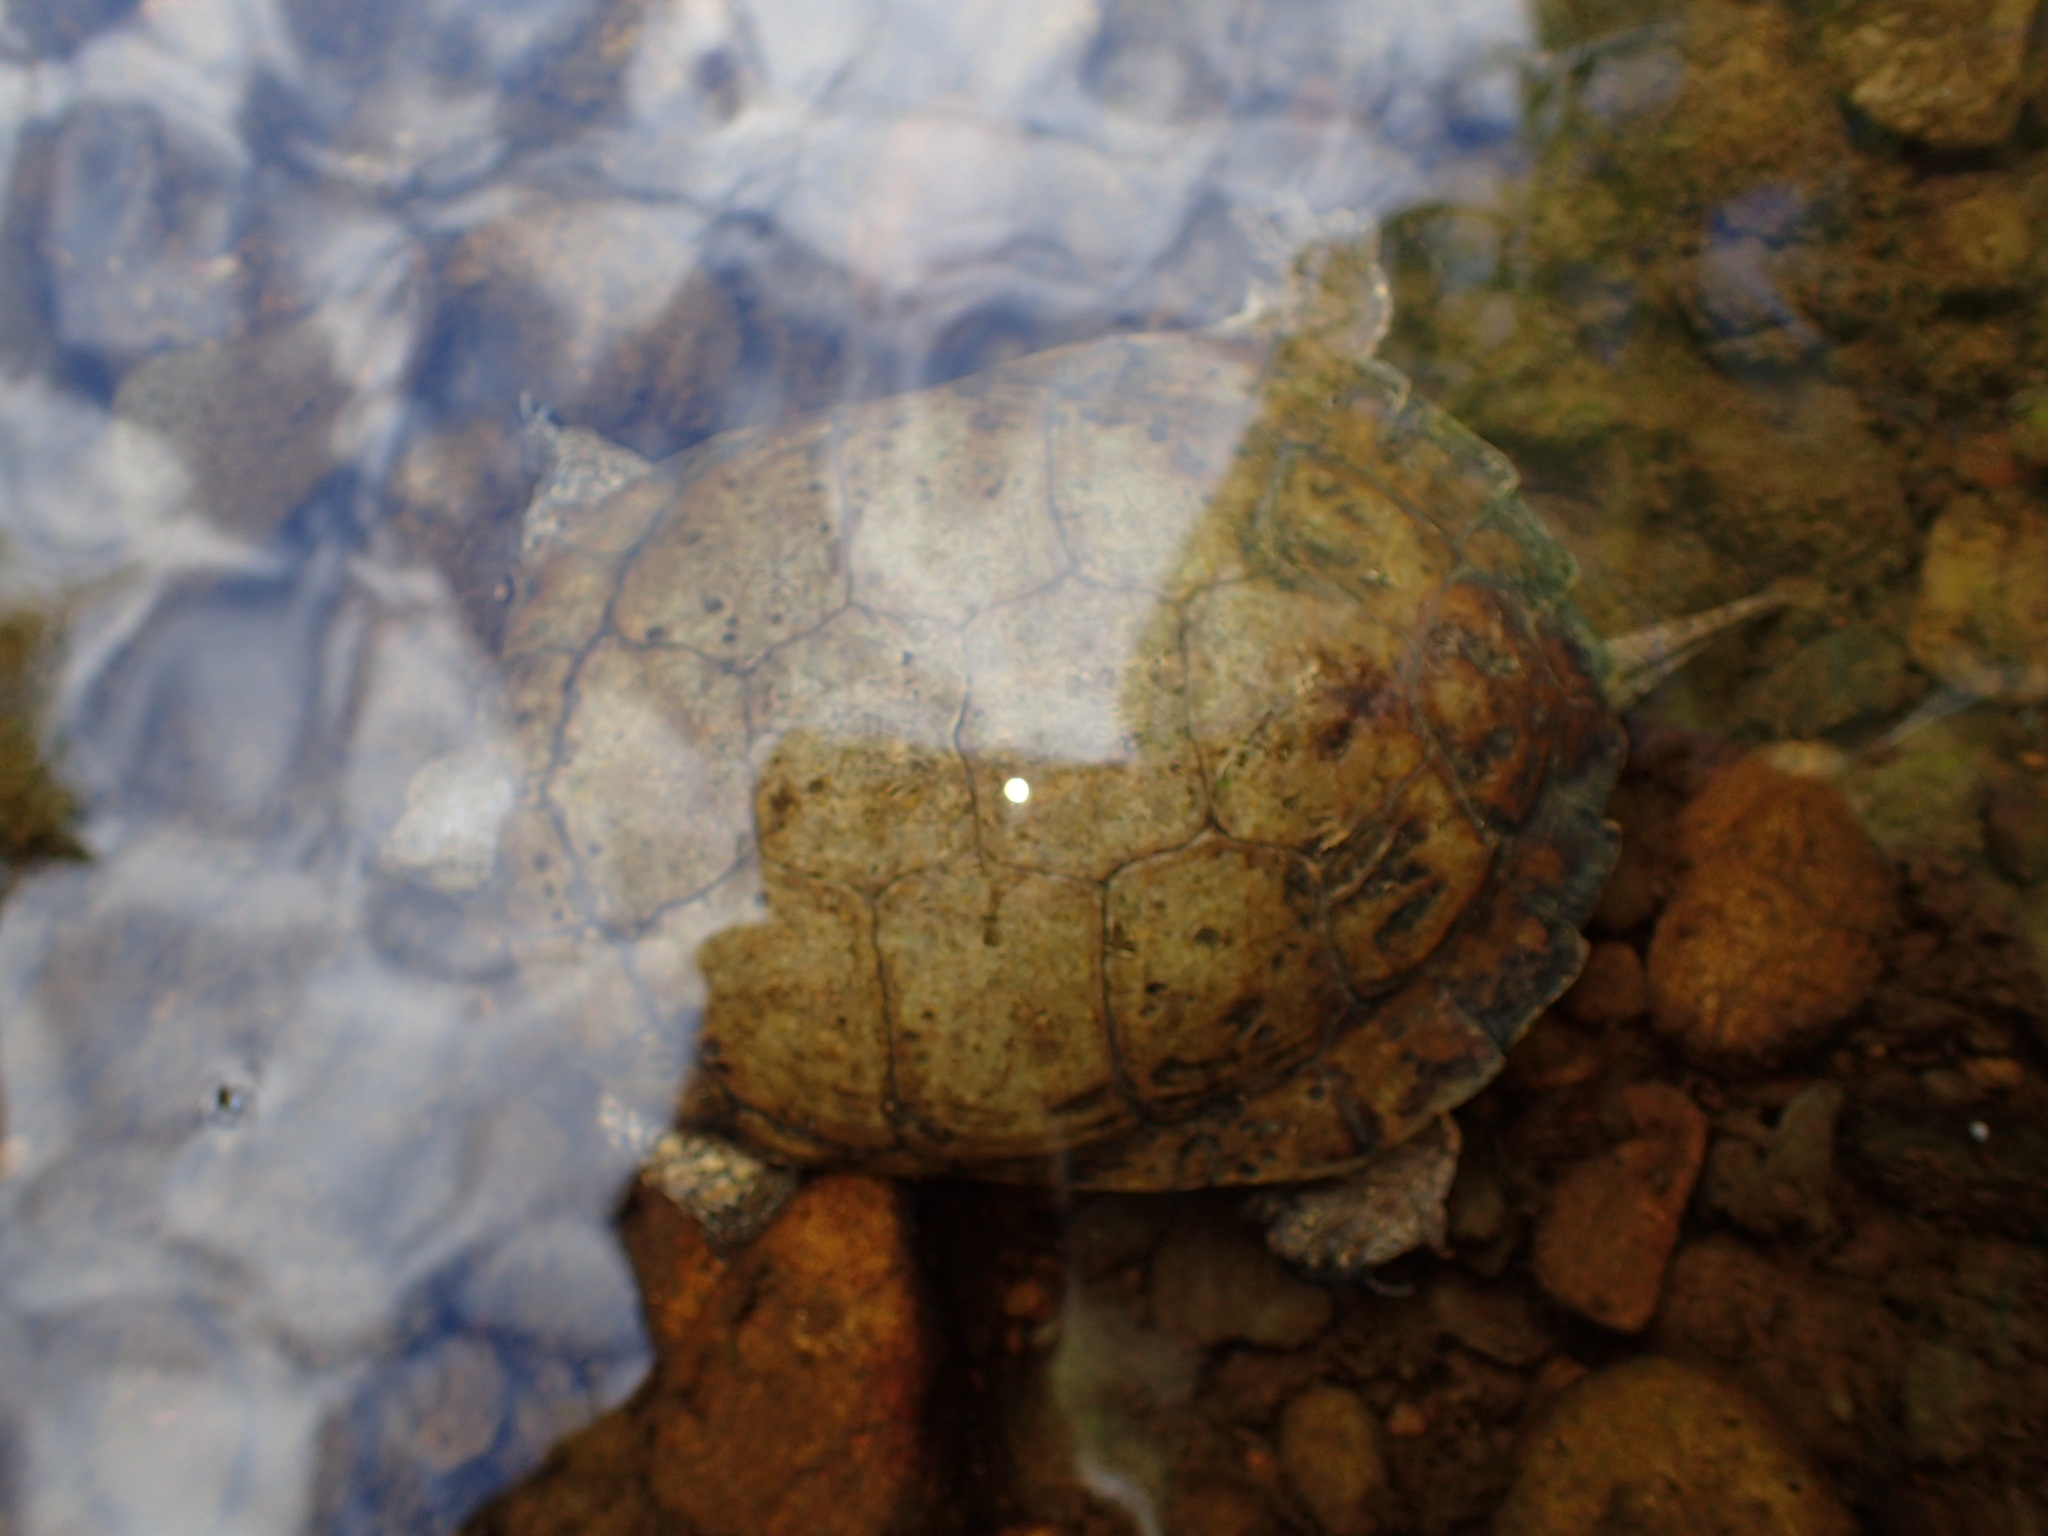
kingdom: Animalia
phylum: Chordata
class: Testudines
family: Emydidae
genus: Actinemys
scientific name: Actinemys marmorata
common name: Western pond turtle
